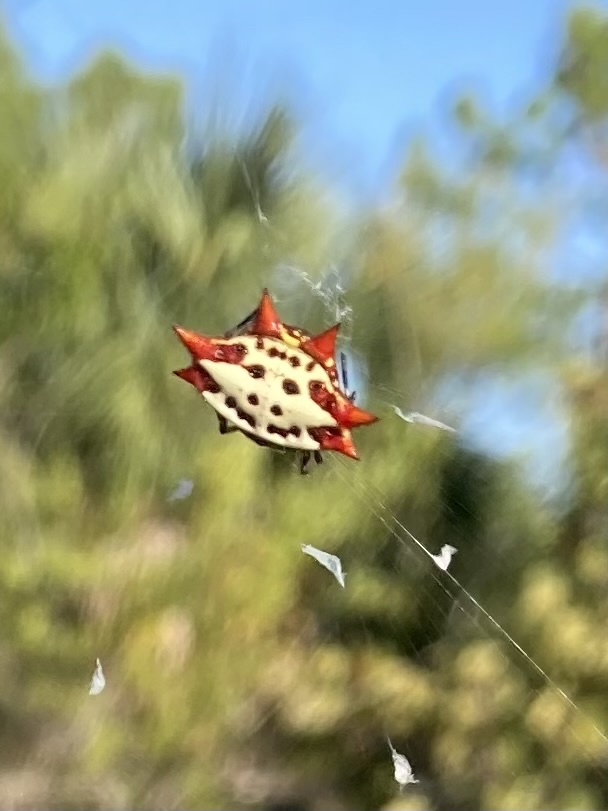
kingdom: Animalia
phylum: Arthropoda
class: Arachnida
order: Araneae
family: Araneidae
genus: Gasteracantha
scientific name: Gasteracantha cancriformis
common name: Orb weavers
